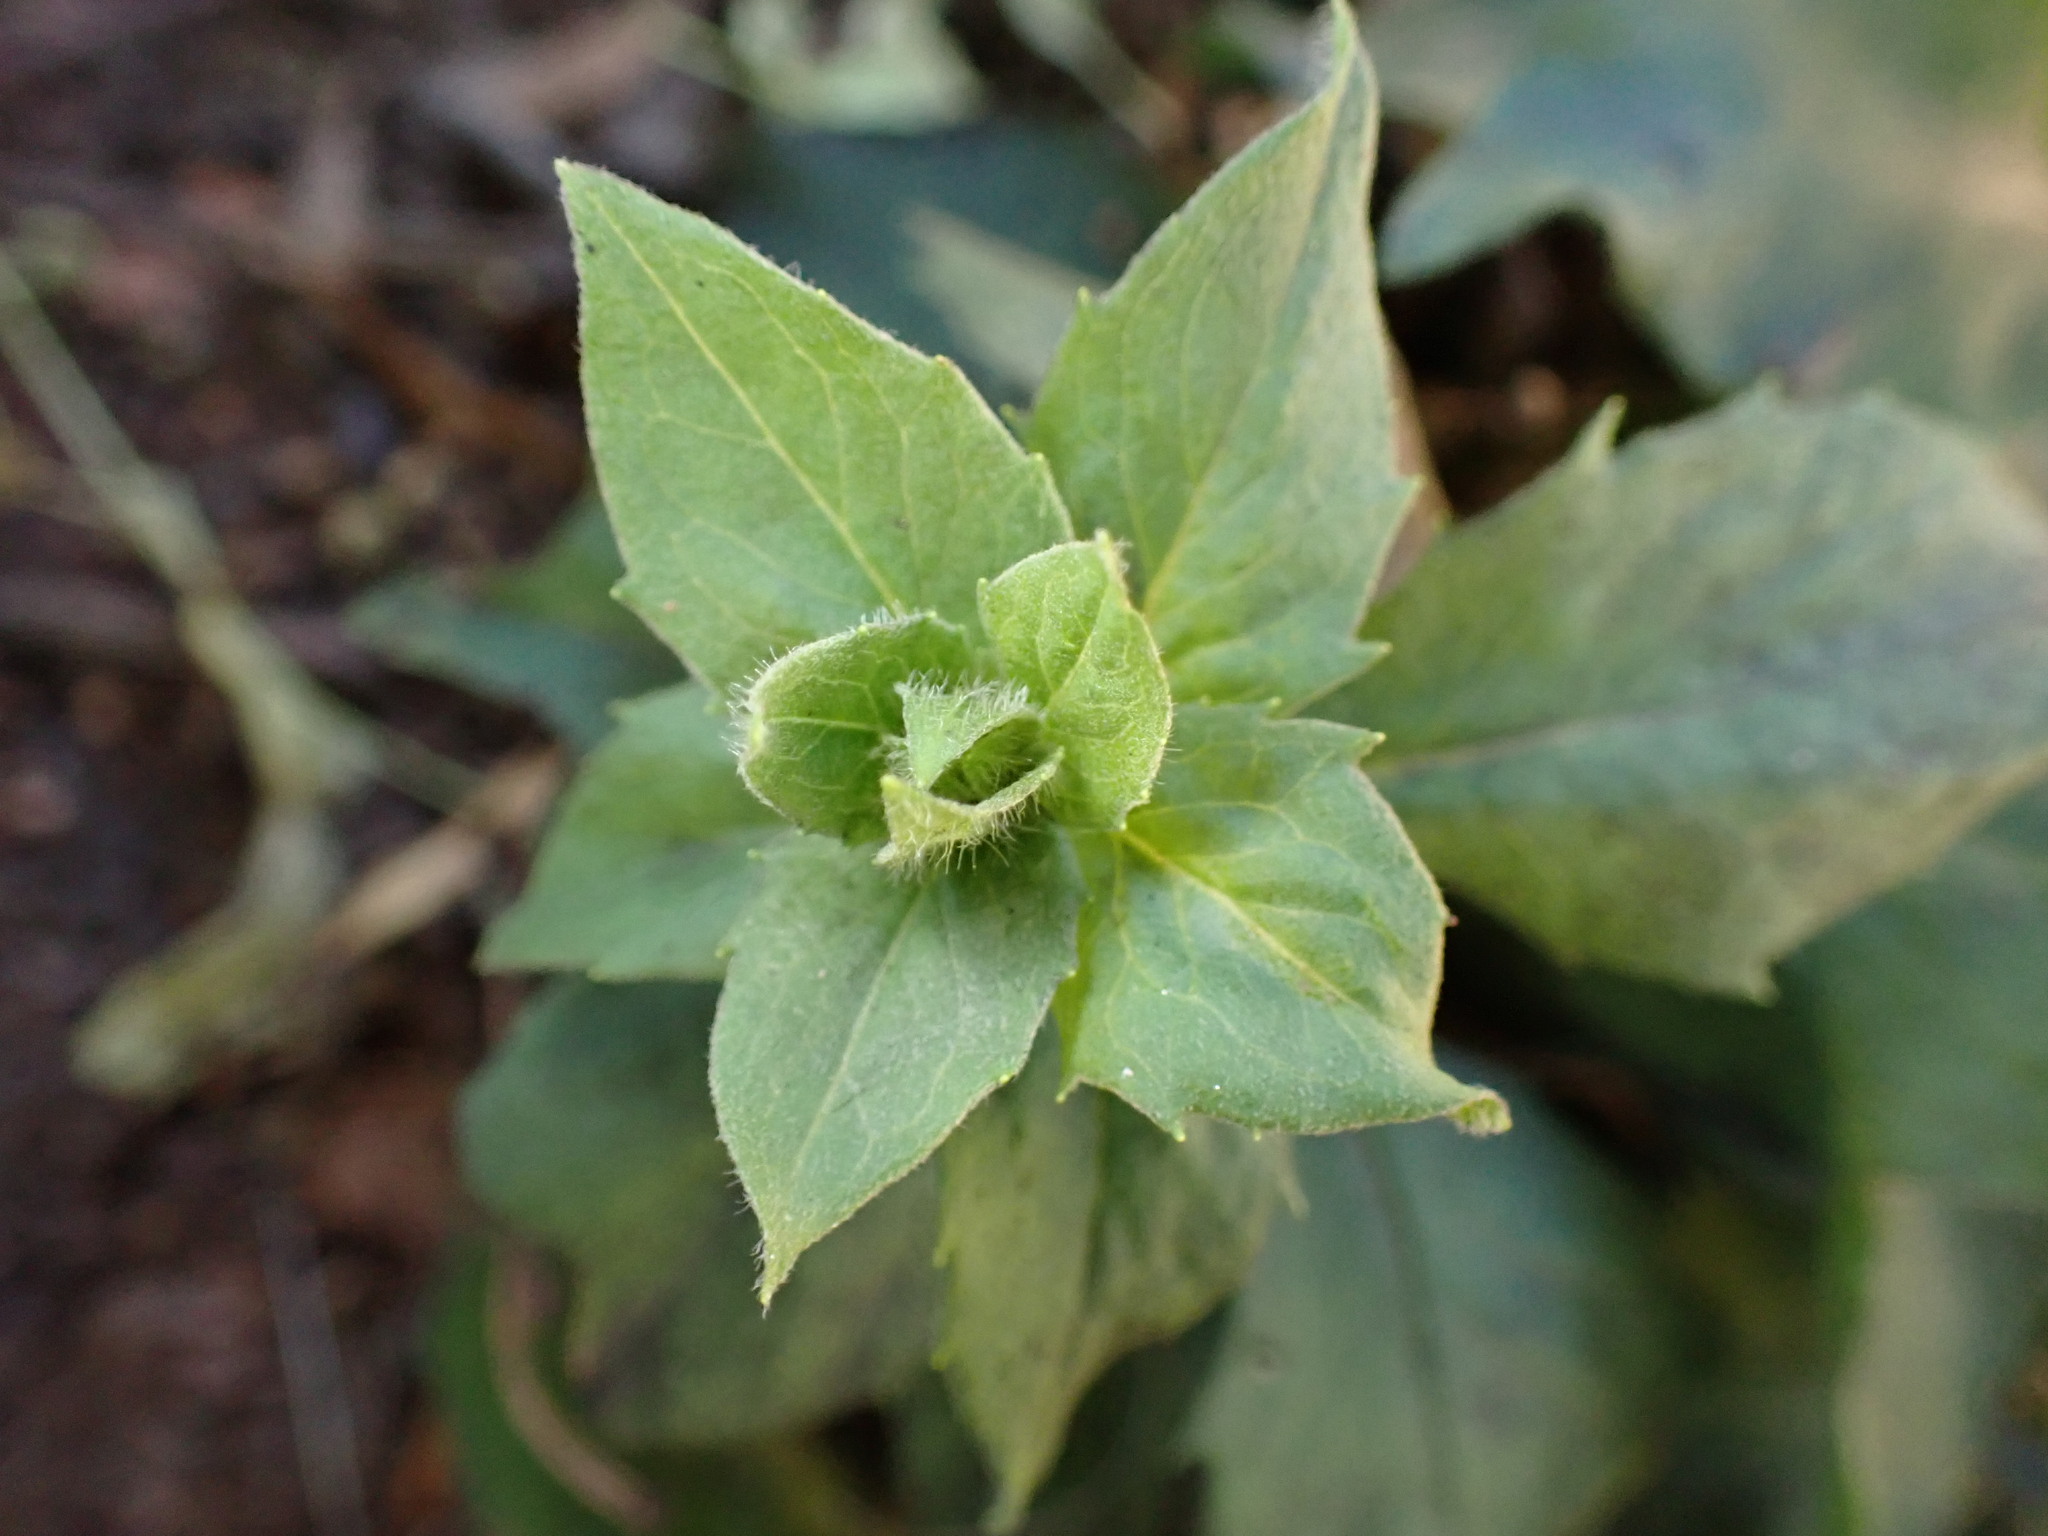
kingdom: Plantae
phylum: Tracheophyta
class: Magnoliopsida
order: Asterales
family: Asteraceae
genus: Hieracium
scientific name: Hieracium sabaudum
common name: New england hawkweed
